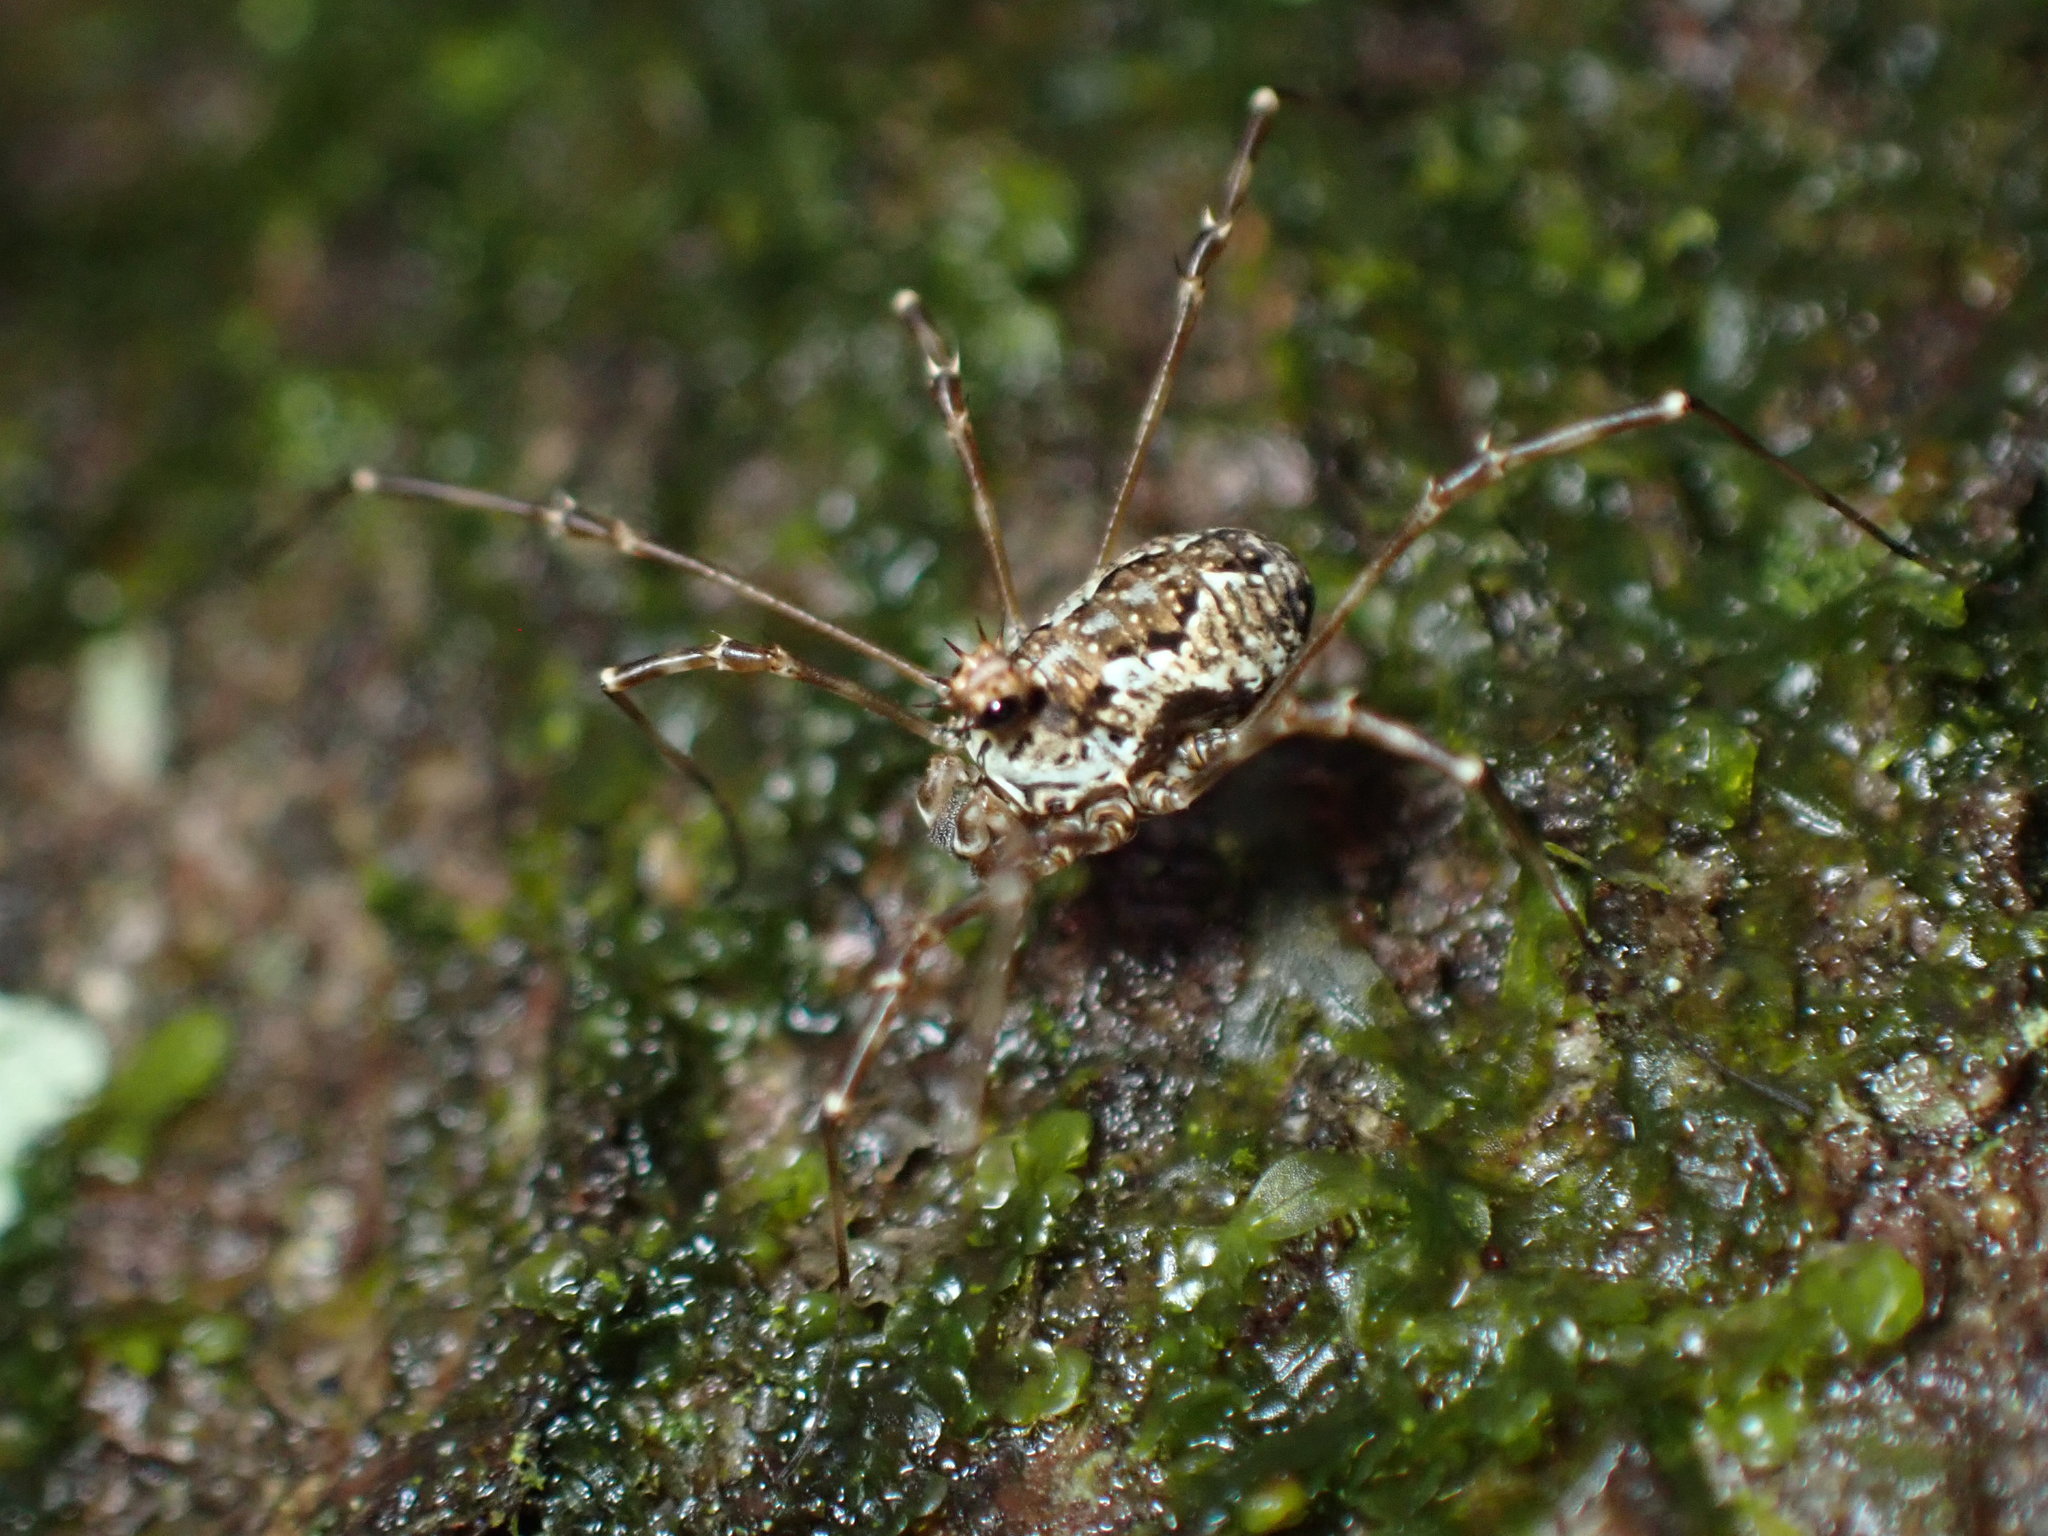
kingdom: Animalia
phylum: Arthropoda
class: Arachnida
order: Opiliones
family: Phalangiidae
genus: Megabunus
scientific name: Megabunus diadema
